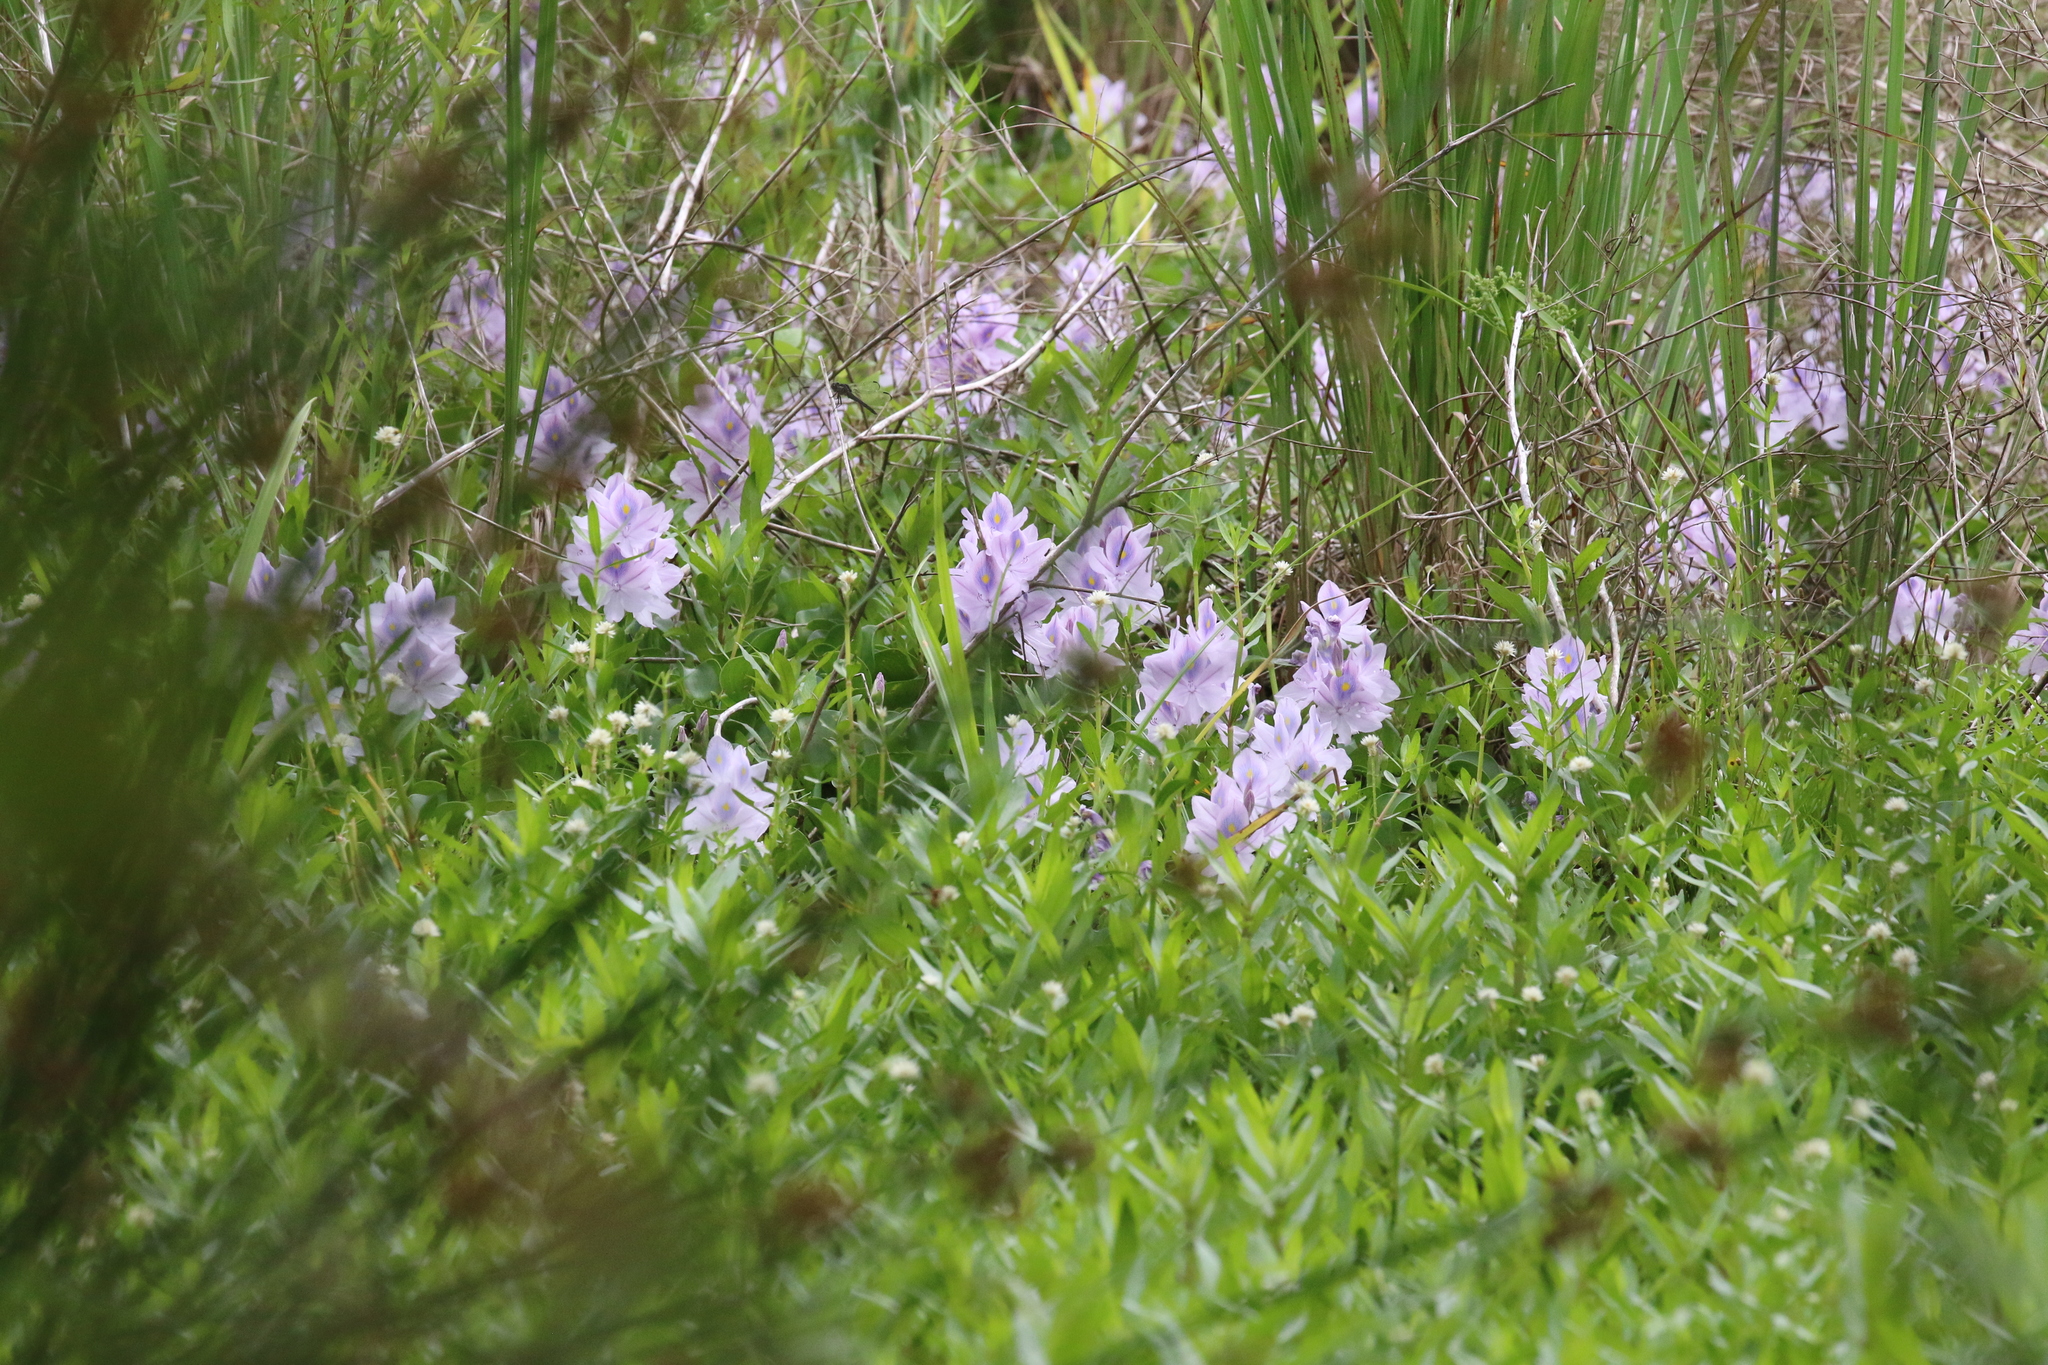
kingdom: Plantae
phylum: Tracheophyta
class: Liliopsida
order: Commelinales
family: Pontederiaceae
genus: Pontederia
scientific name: Pontederia crassipes
